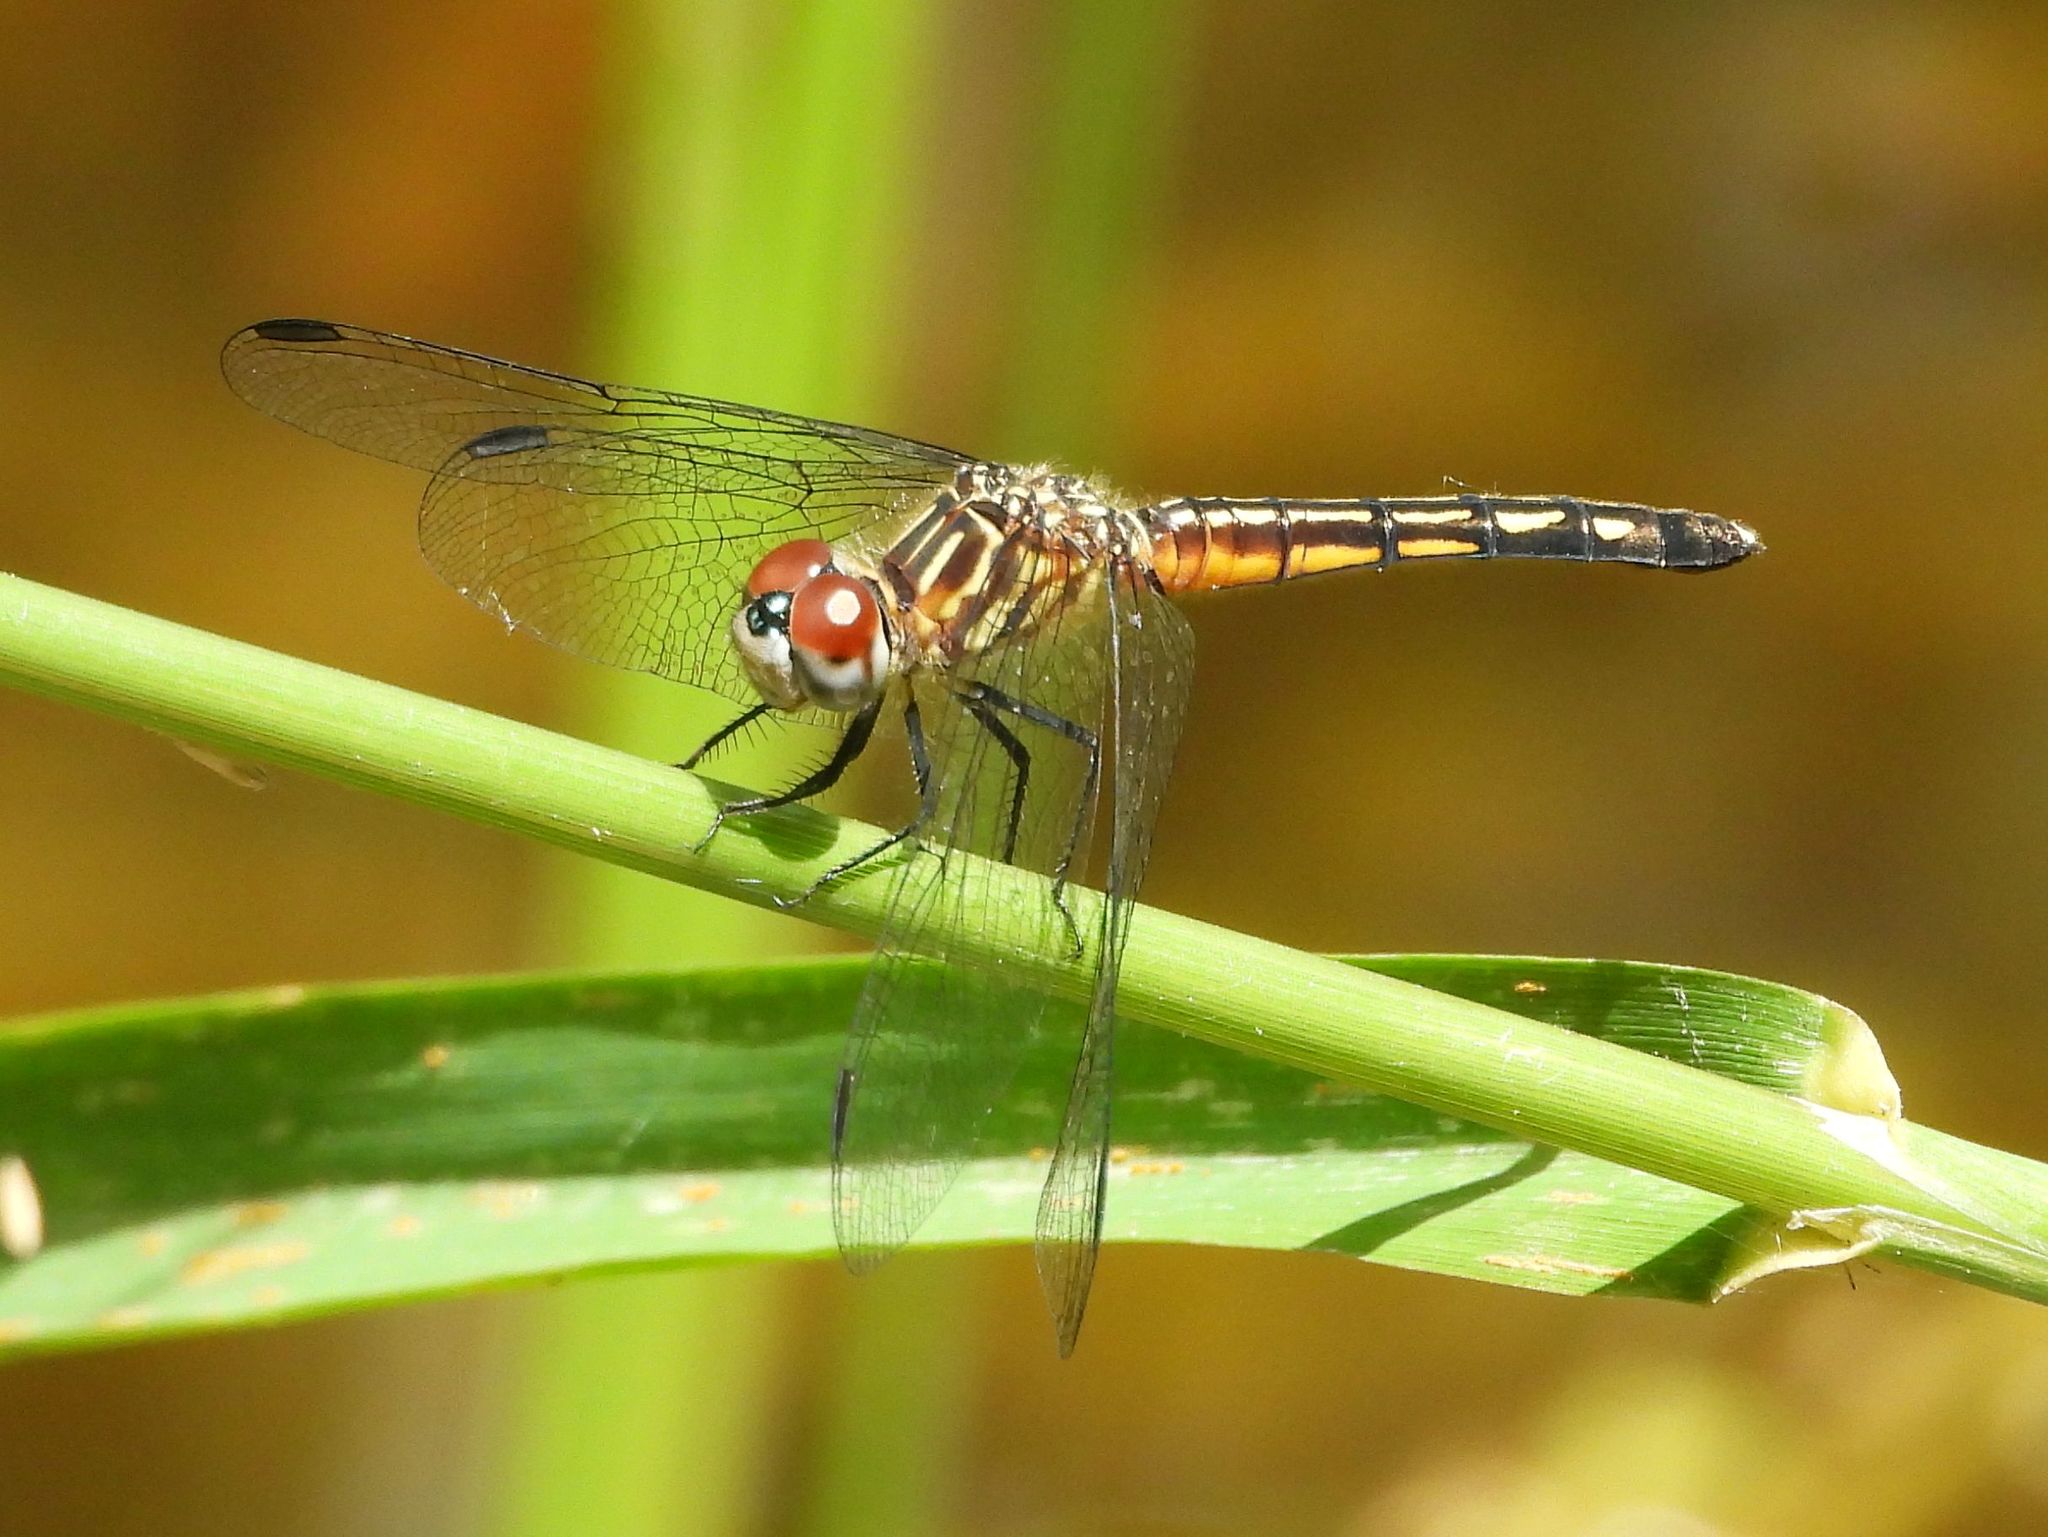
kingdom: Animalia
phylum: Arthropoda
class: Insecta
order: Odonata
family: Libellulidae
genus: Pachydiplax
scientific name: Pachydiplax longipennis
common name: Blue dasher
